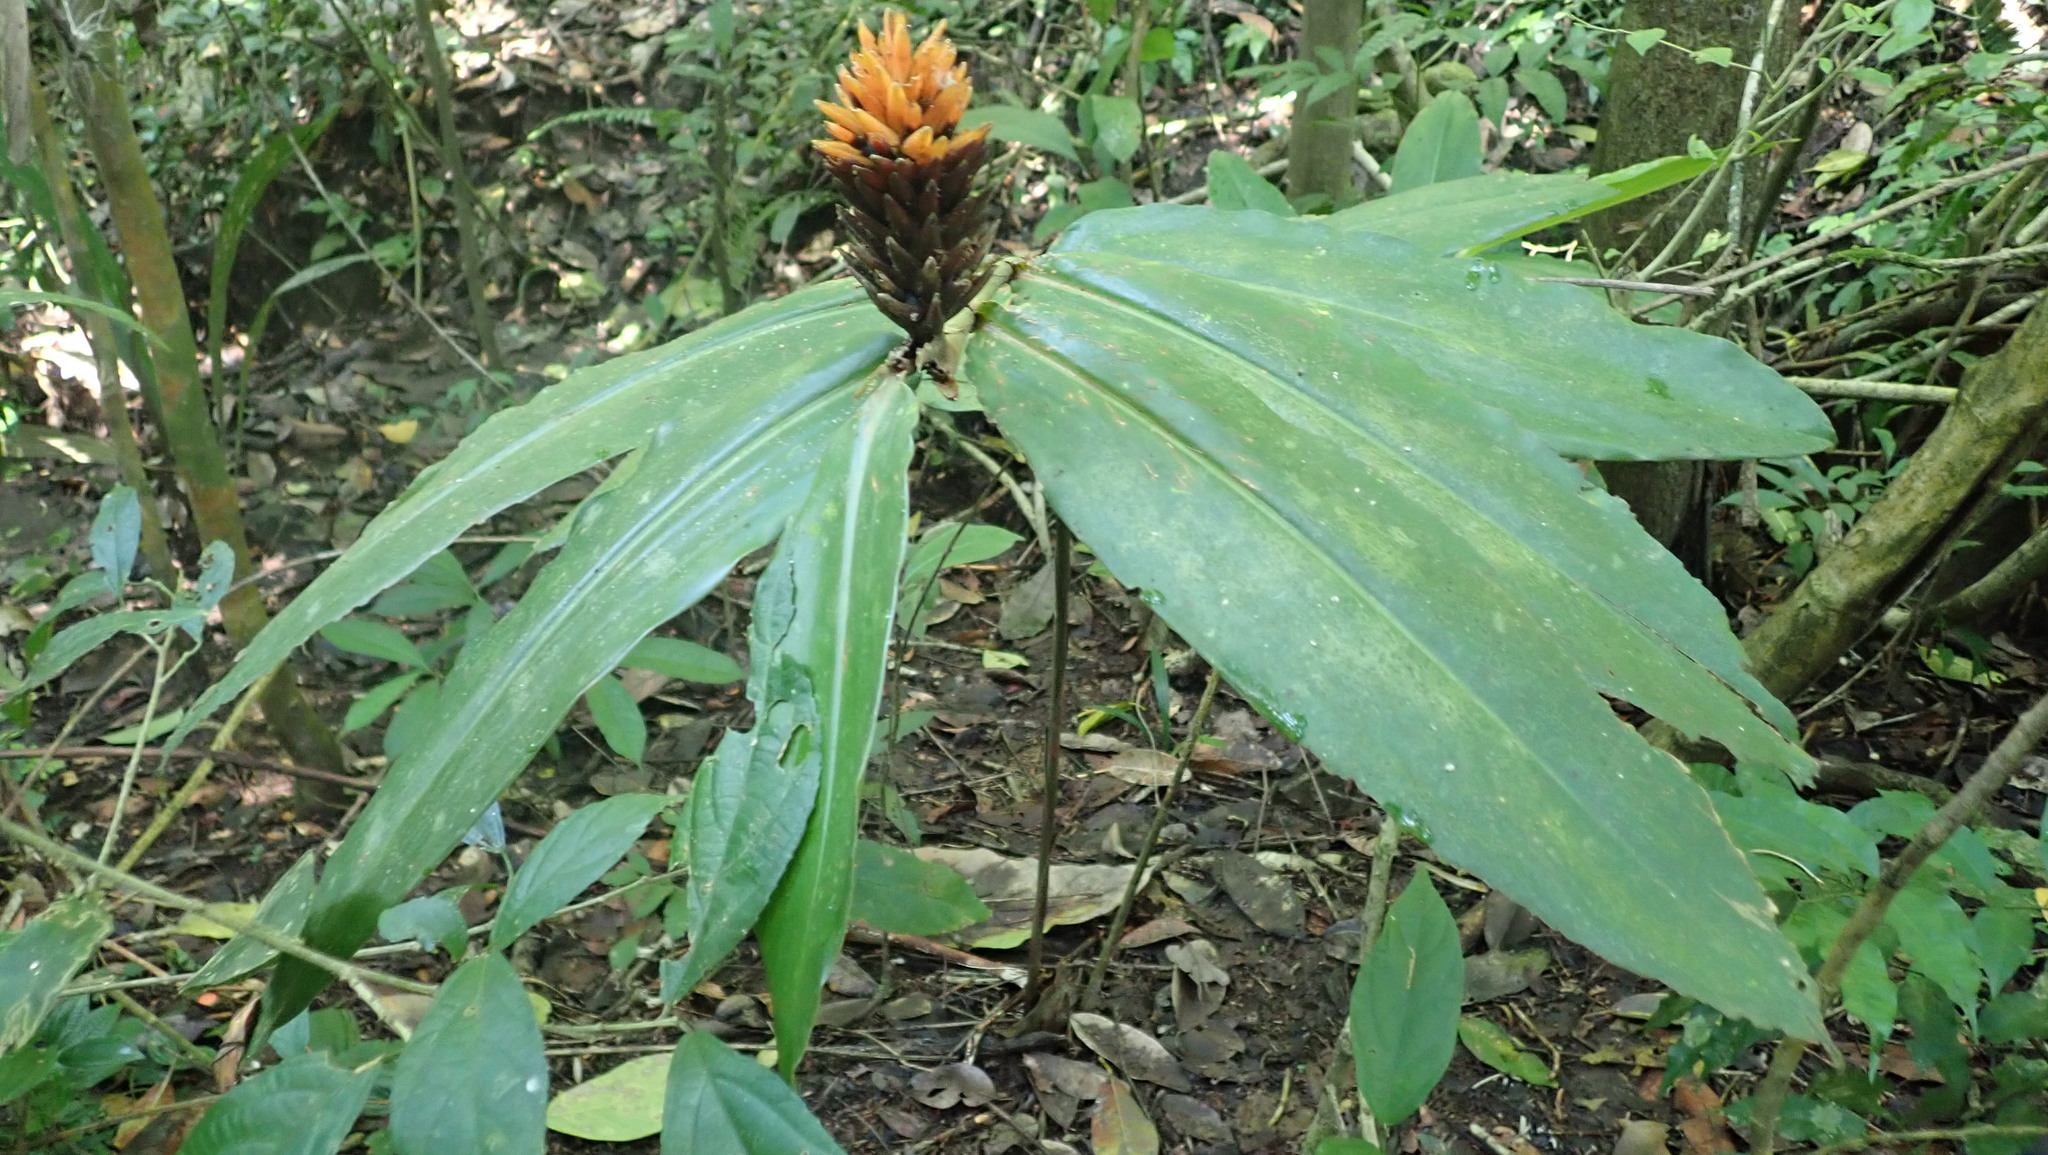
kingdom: Plantae
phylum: Tracheophyta
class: Liliopsida
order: Zingiberales
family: Zingiberaceae
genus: Renealmia
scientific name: Renealmia cernua
